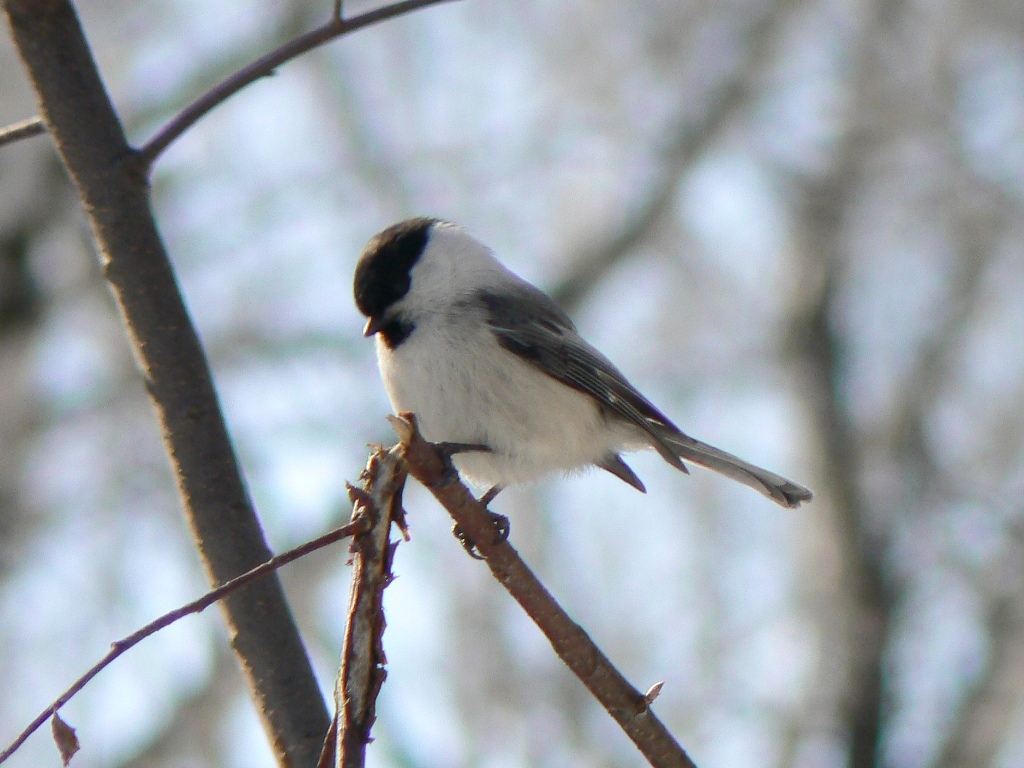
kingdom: Animalia
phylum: Chordata
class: Aves
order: Passeriformes
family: Paridae
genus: Poecile
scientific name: Poecile montanus
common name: Willow tit
